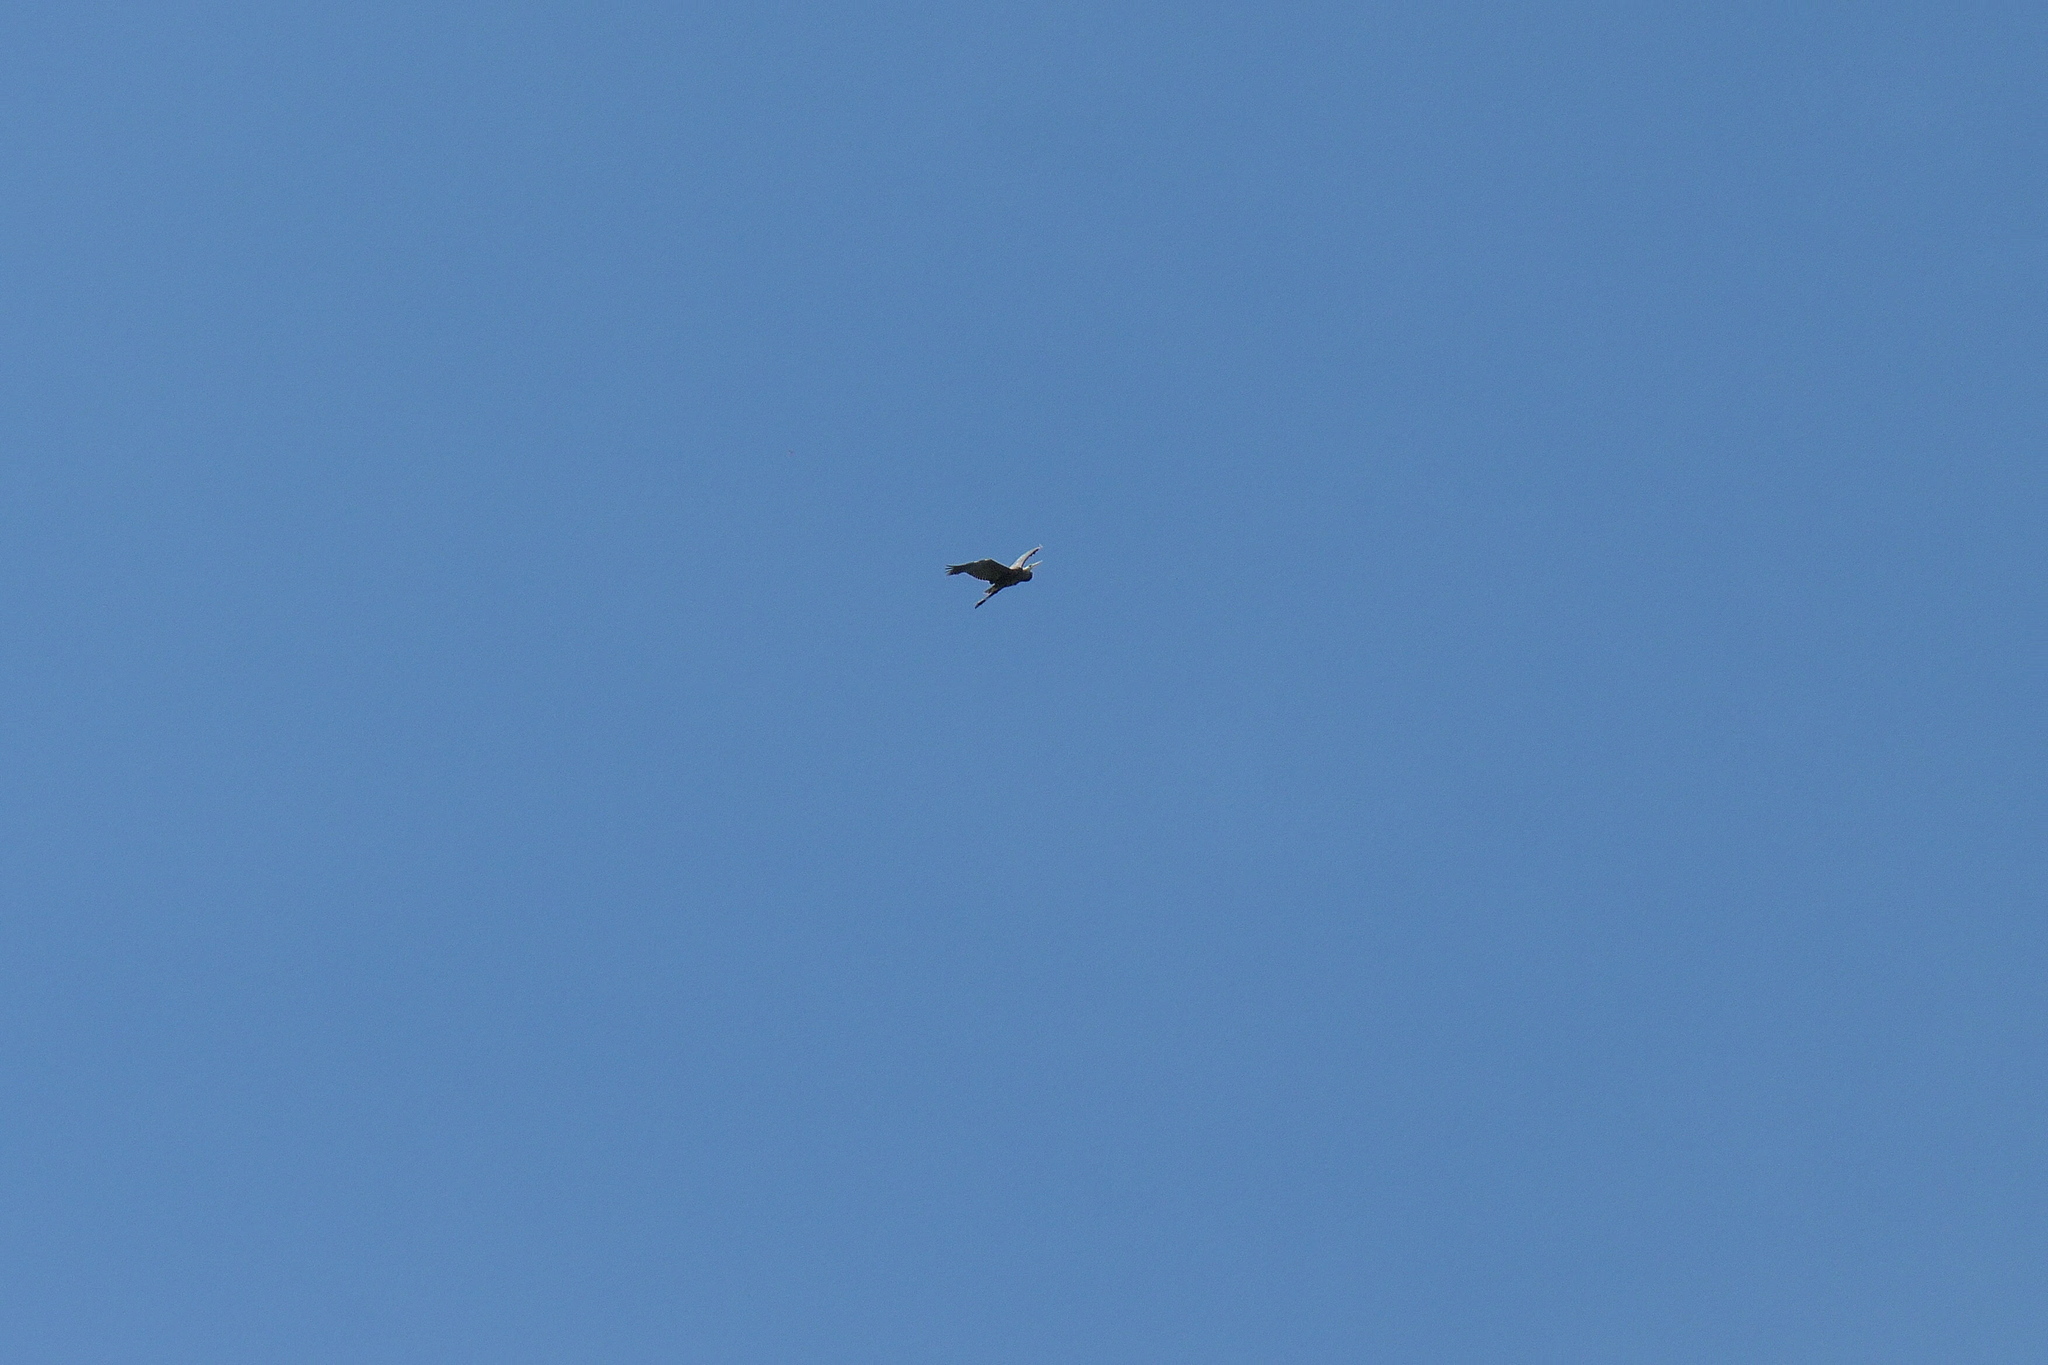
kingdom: Animalia
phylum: Chordata
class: Aves
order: Pelecaniformes
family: Ardeidae
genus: Ardea
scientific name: Ardea herodias
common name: Great blue heron
